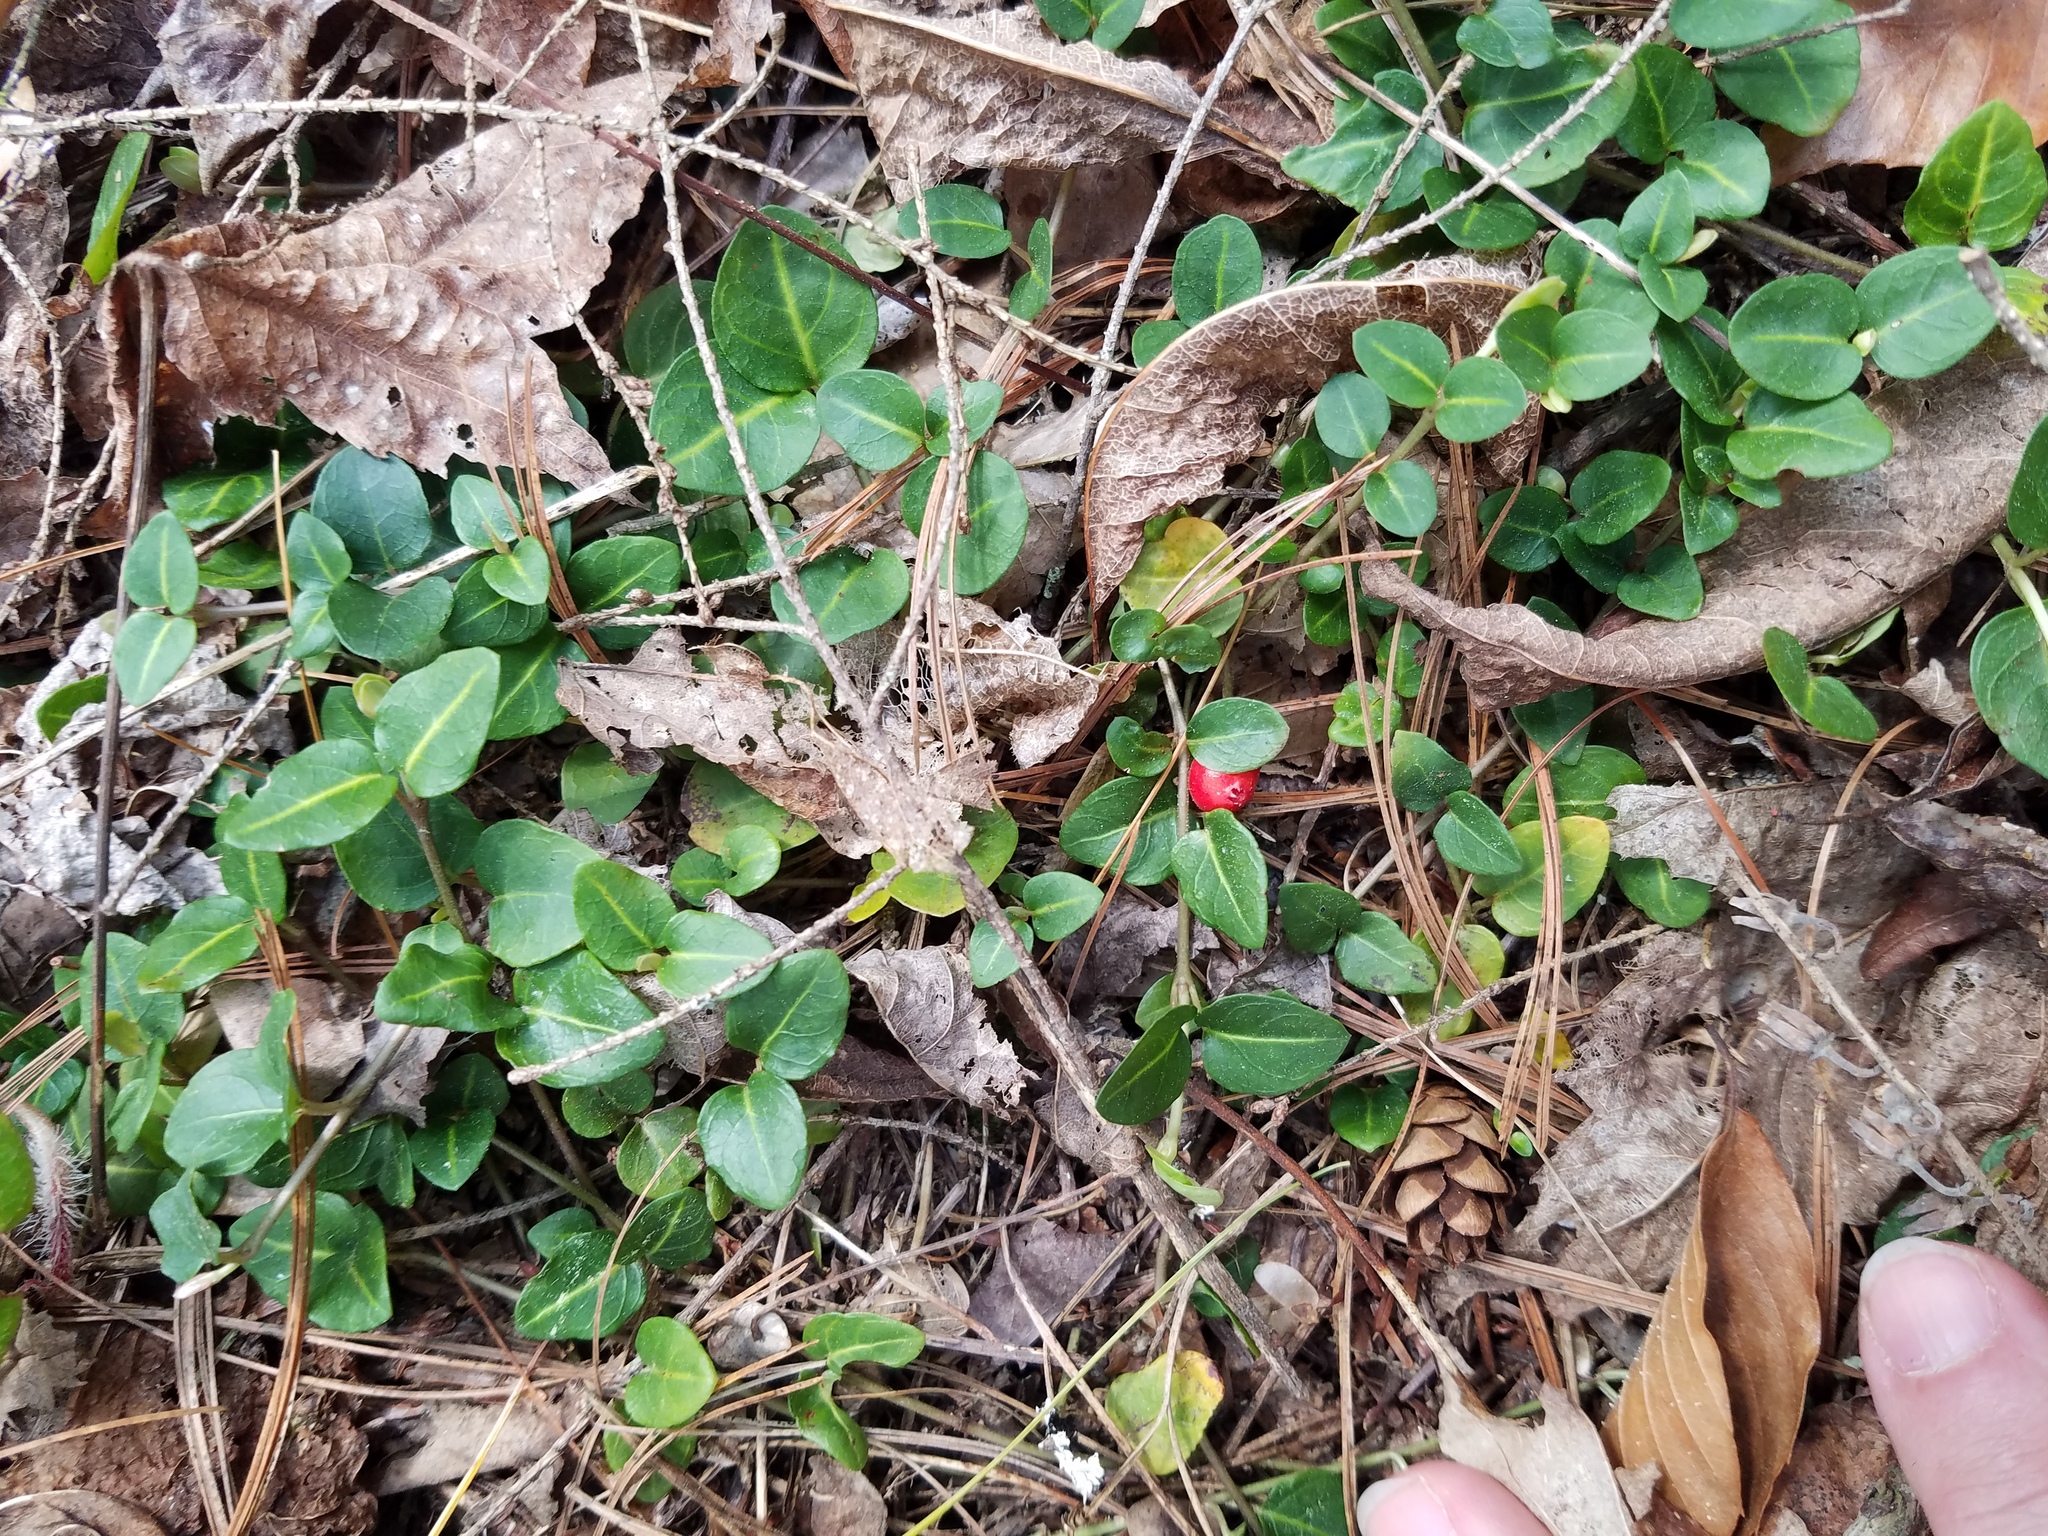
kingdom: Plantae
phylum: Tracheophyta
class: Magnoliopsida
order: Gentianales
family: Rubiaceae
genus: Mitchella
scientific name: Mitchella repens
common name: Partridge-berry
